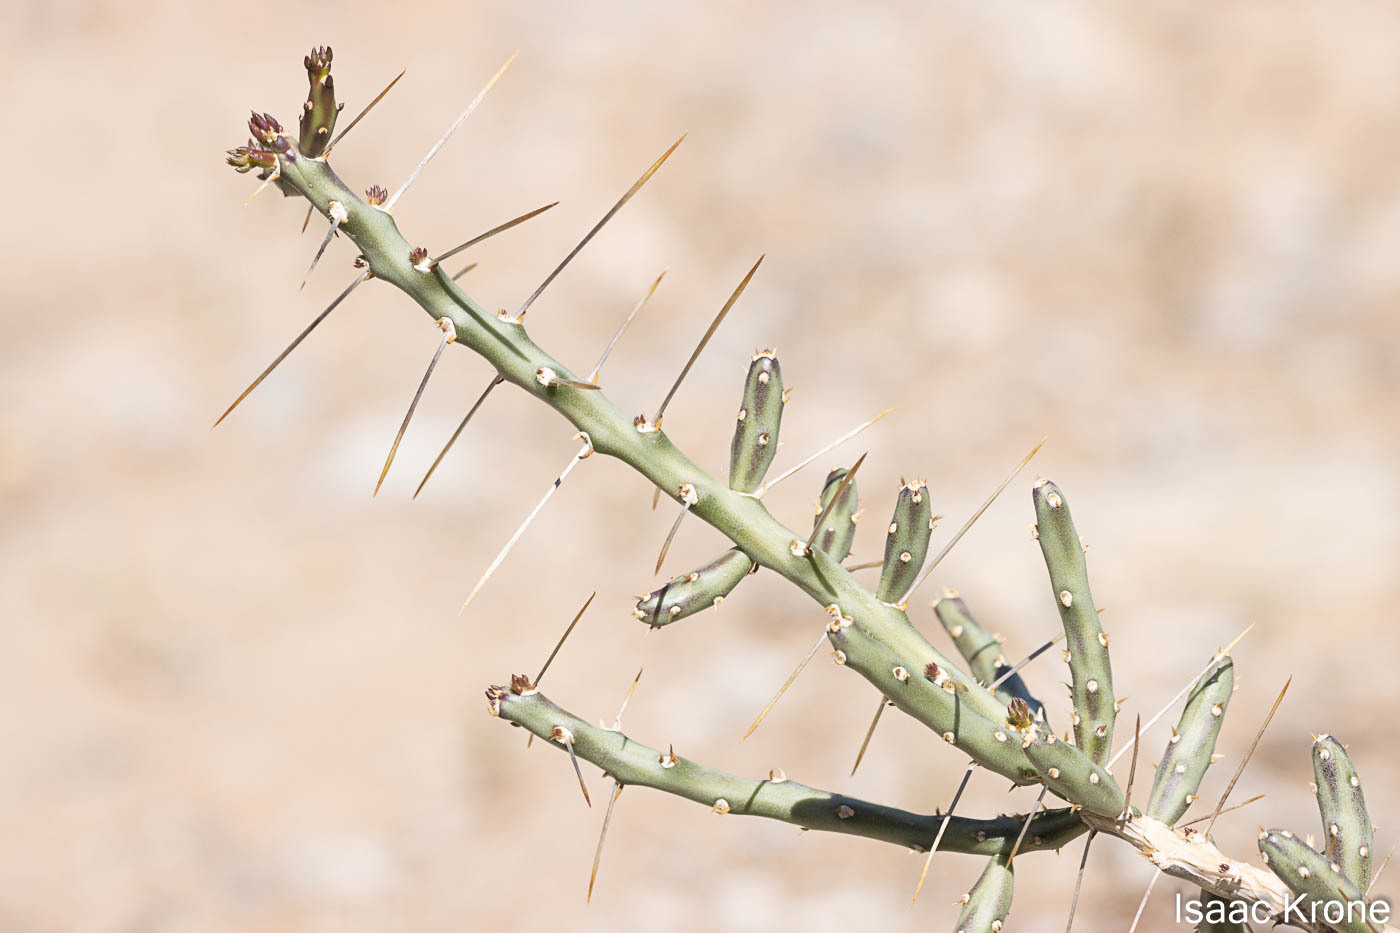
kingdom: Plantae
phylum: Tracheophyta
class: Magnoliopsida
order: Caryophyllales
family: Cactaceae
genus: Cylindropuntia
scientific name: Cylindropuntia leptocaulis
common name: Christmas cactus
